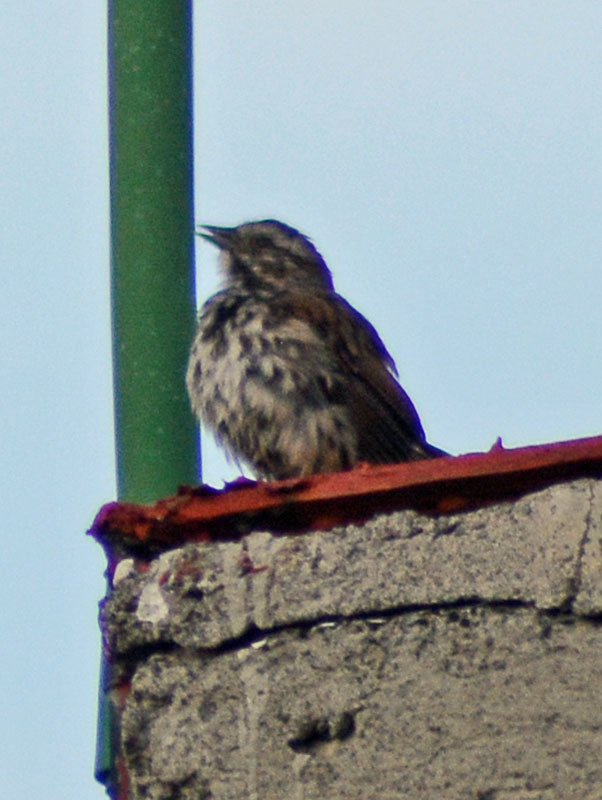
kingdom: Animalia
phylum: Chordata
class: Aves
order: Passeriformes
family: Passerellidae
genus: Melospiza
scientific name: Melospiza melodia
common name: Song sparrow
